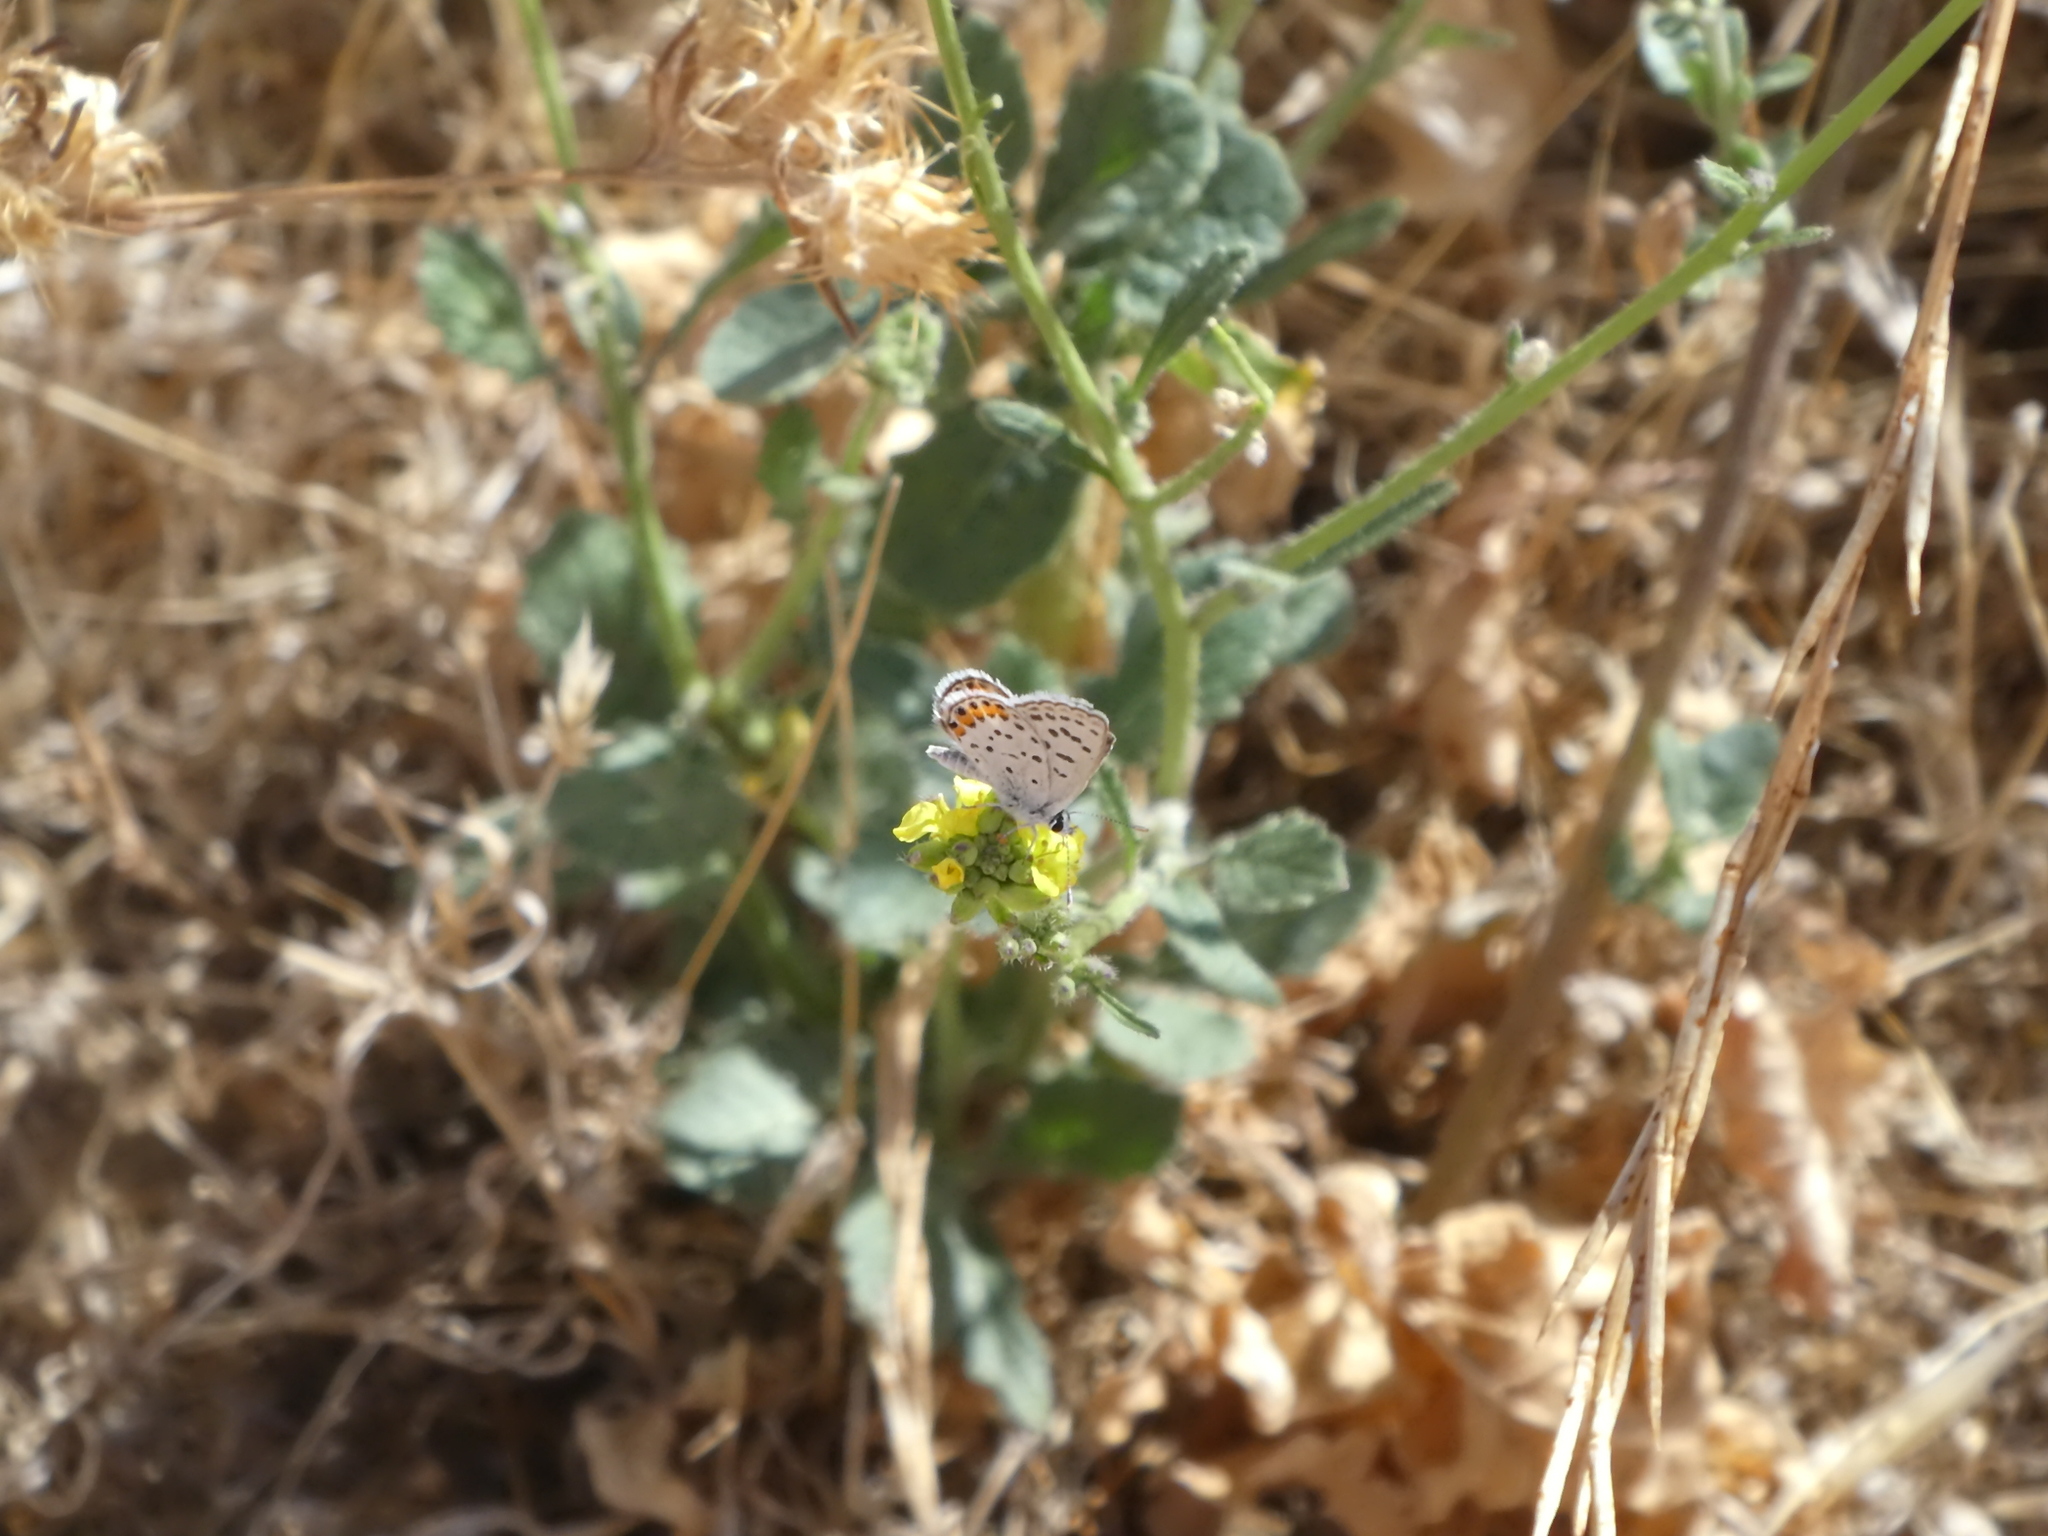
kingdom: Animalia
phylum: Arthropoda
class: Insecta
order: Lepidoptera
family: Lycaenidae
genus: Icaricia
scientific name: Icaricia acmon
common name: Acmon blue
